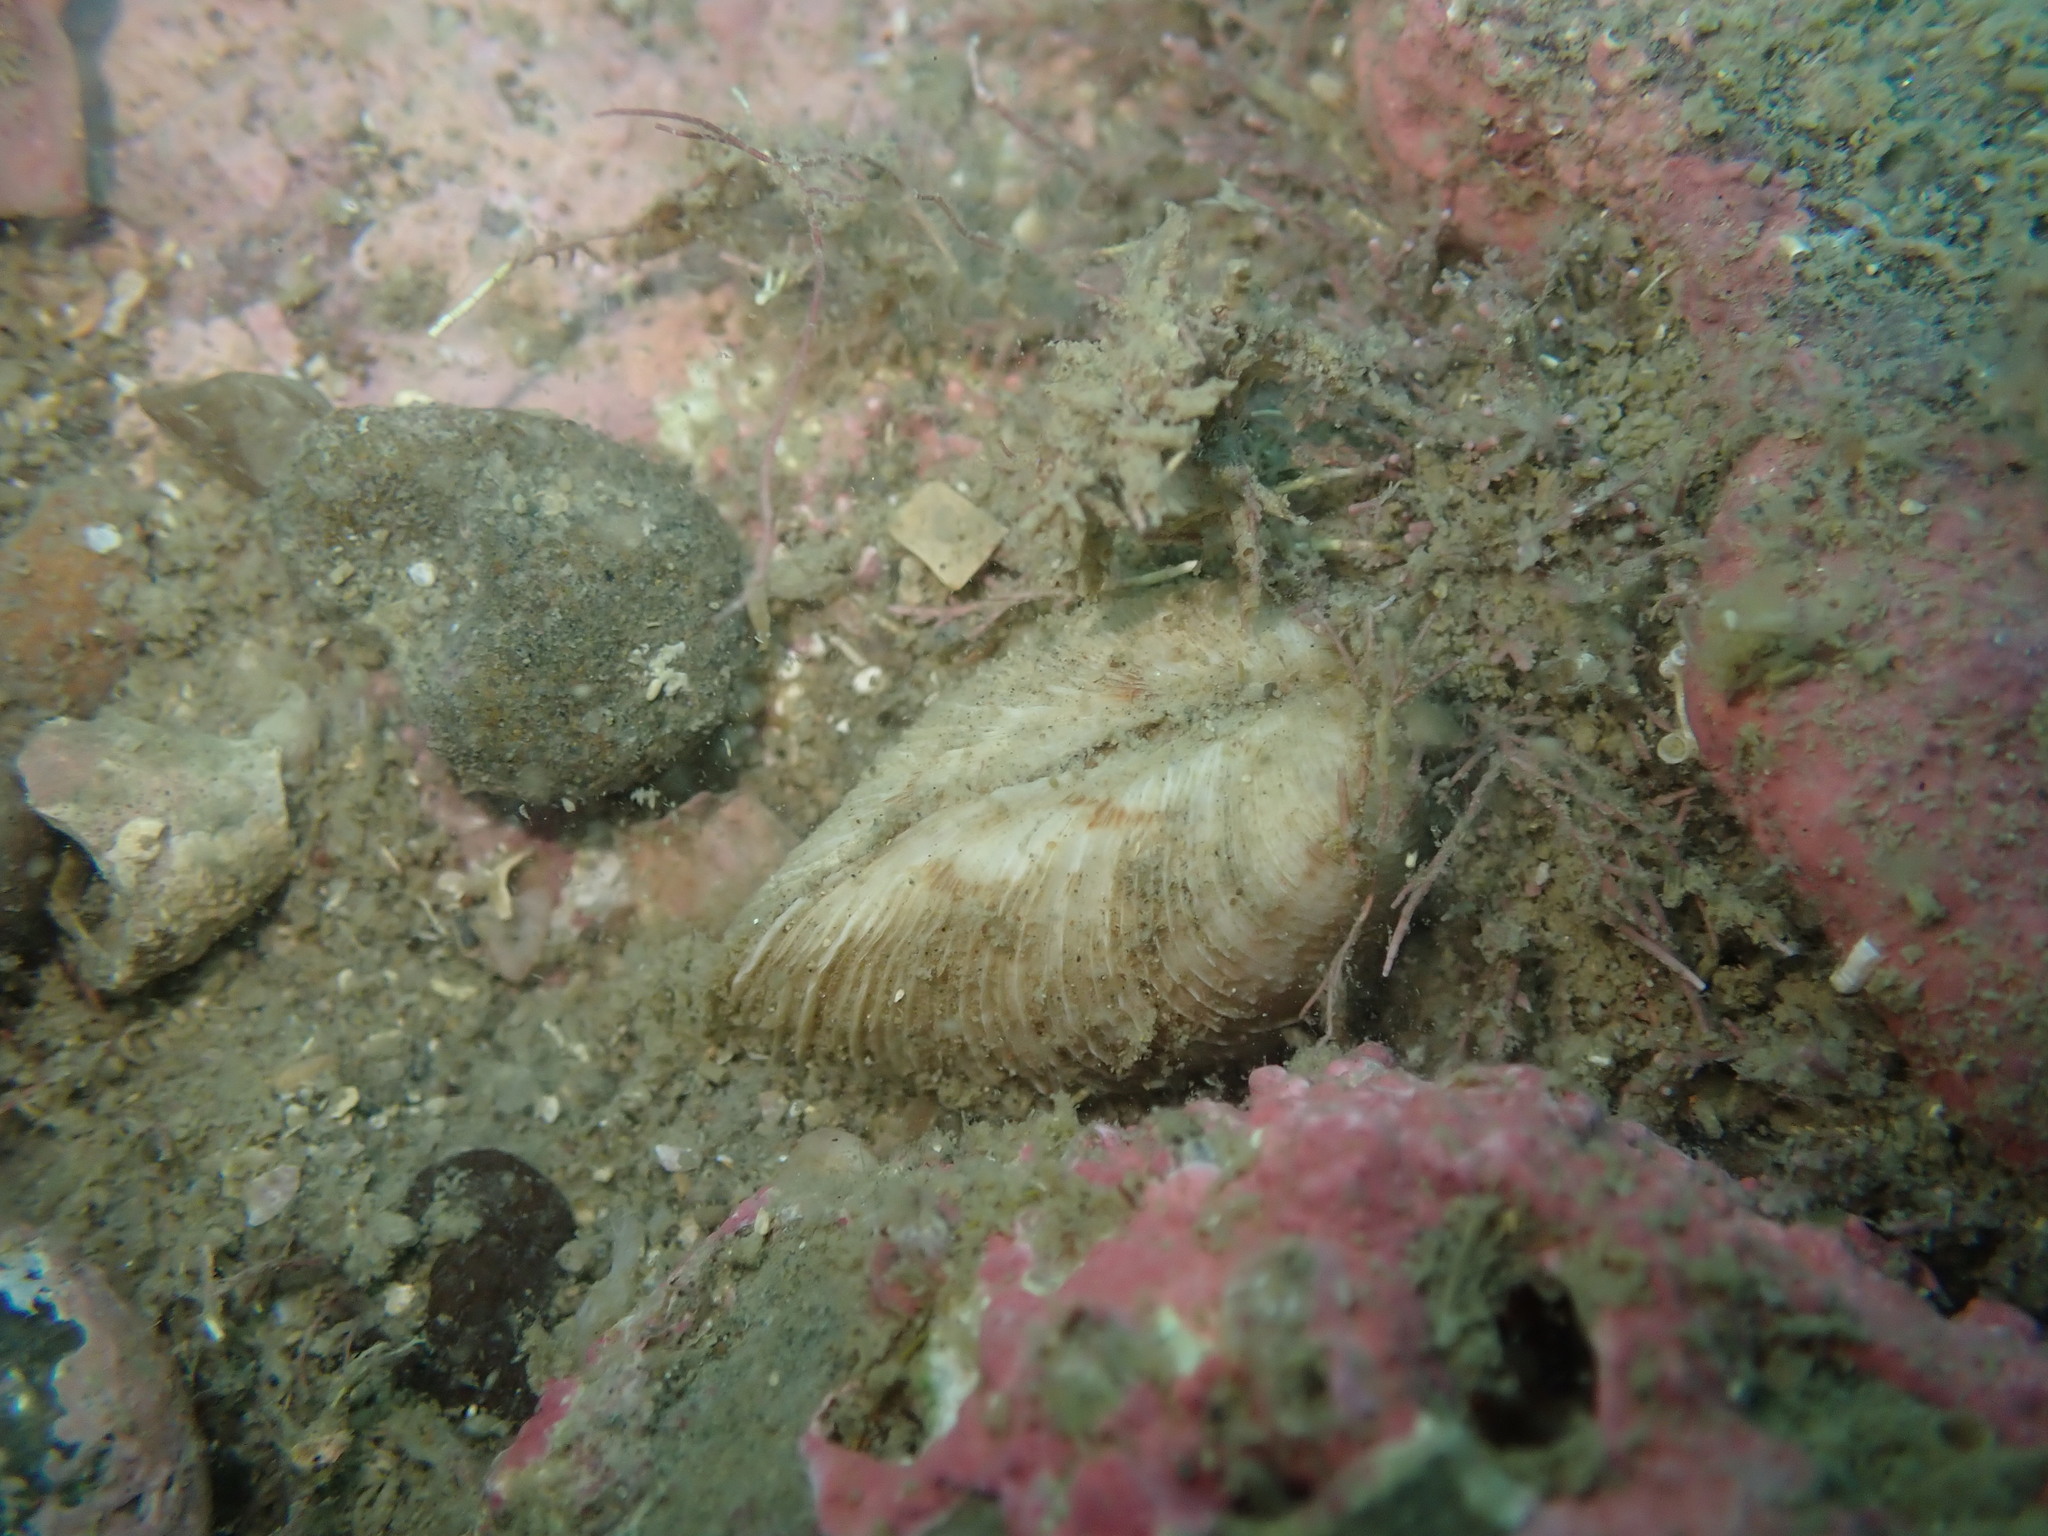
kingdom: Animalia
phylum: Mollusca
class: Bivalvia
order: Venerida
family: Veneridae
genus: Dosina
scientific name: Dosina mactracea
